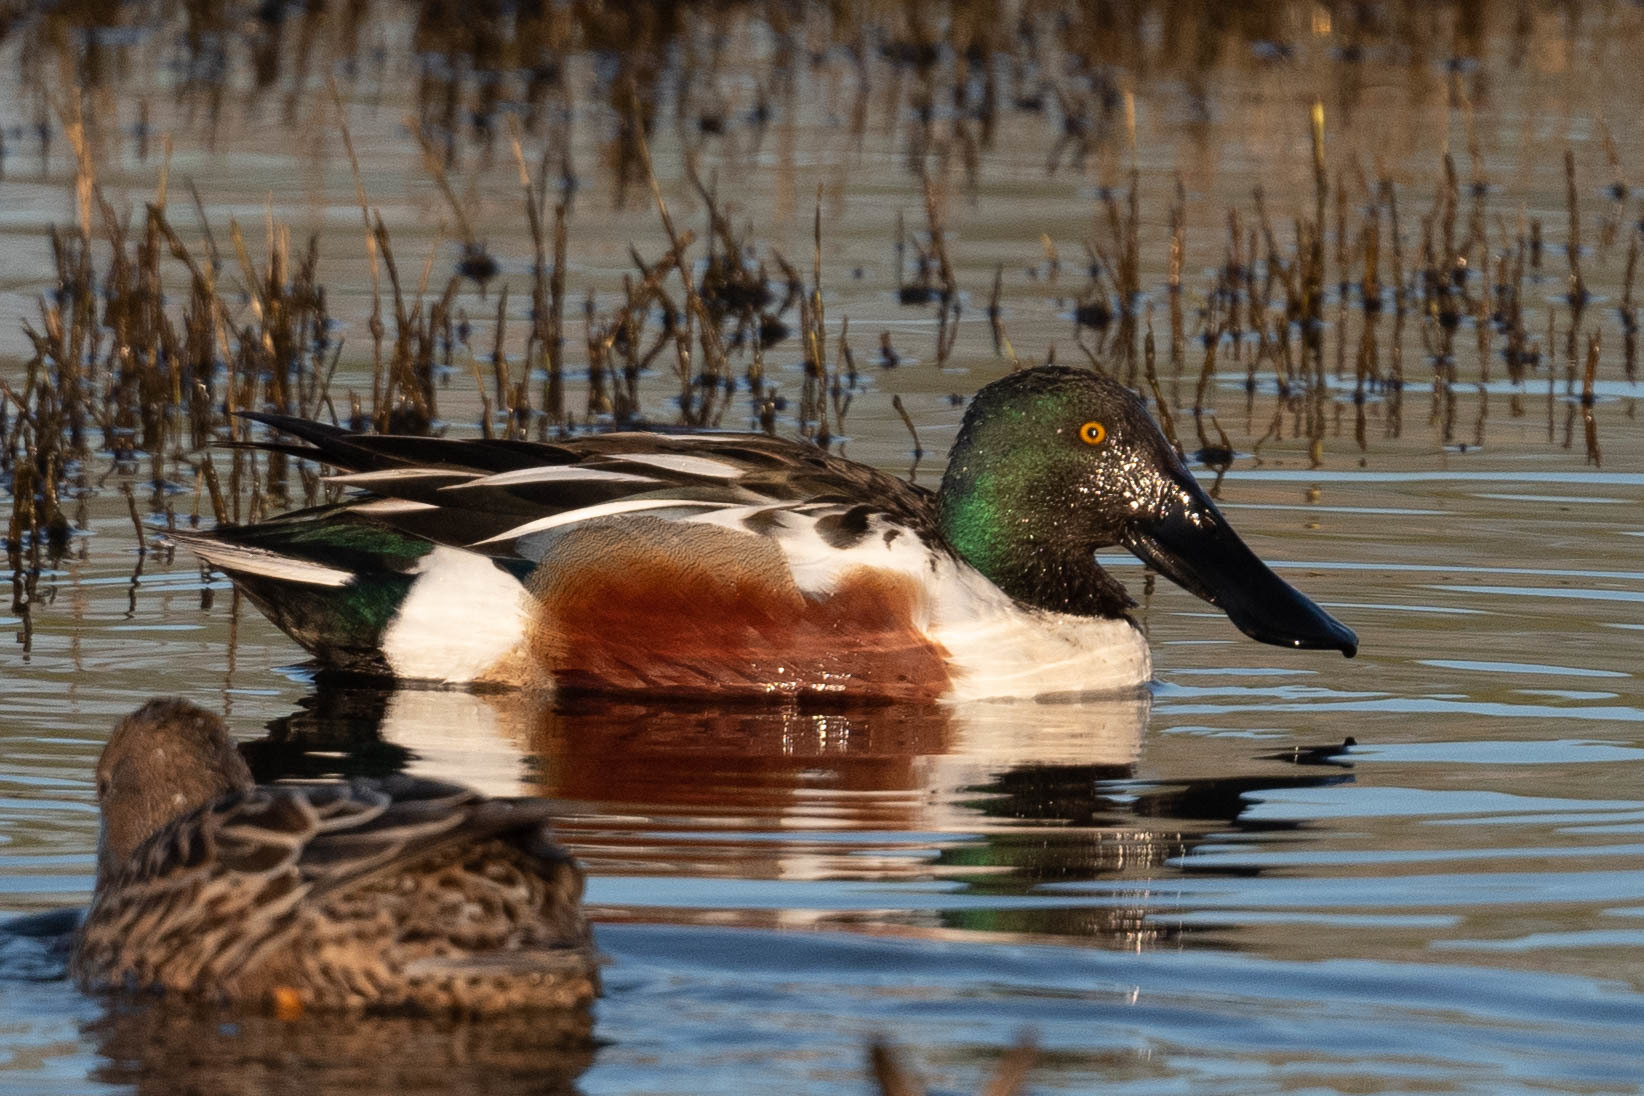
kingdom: Animalia
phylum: Chordata
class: Aves
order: Anseriformes
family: Anatidae
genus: Spatula
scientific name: Spatula clypeata
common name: Northern shoveler
